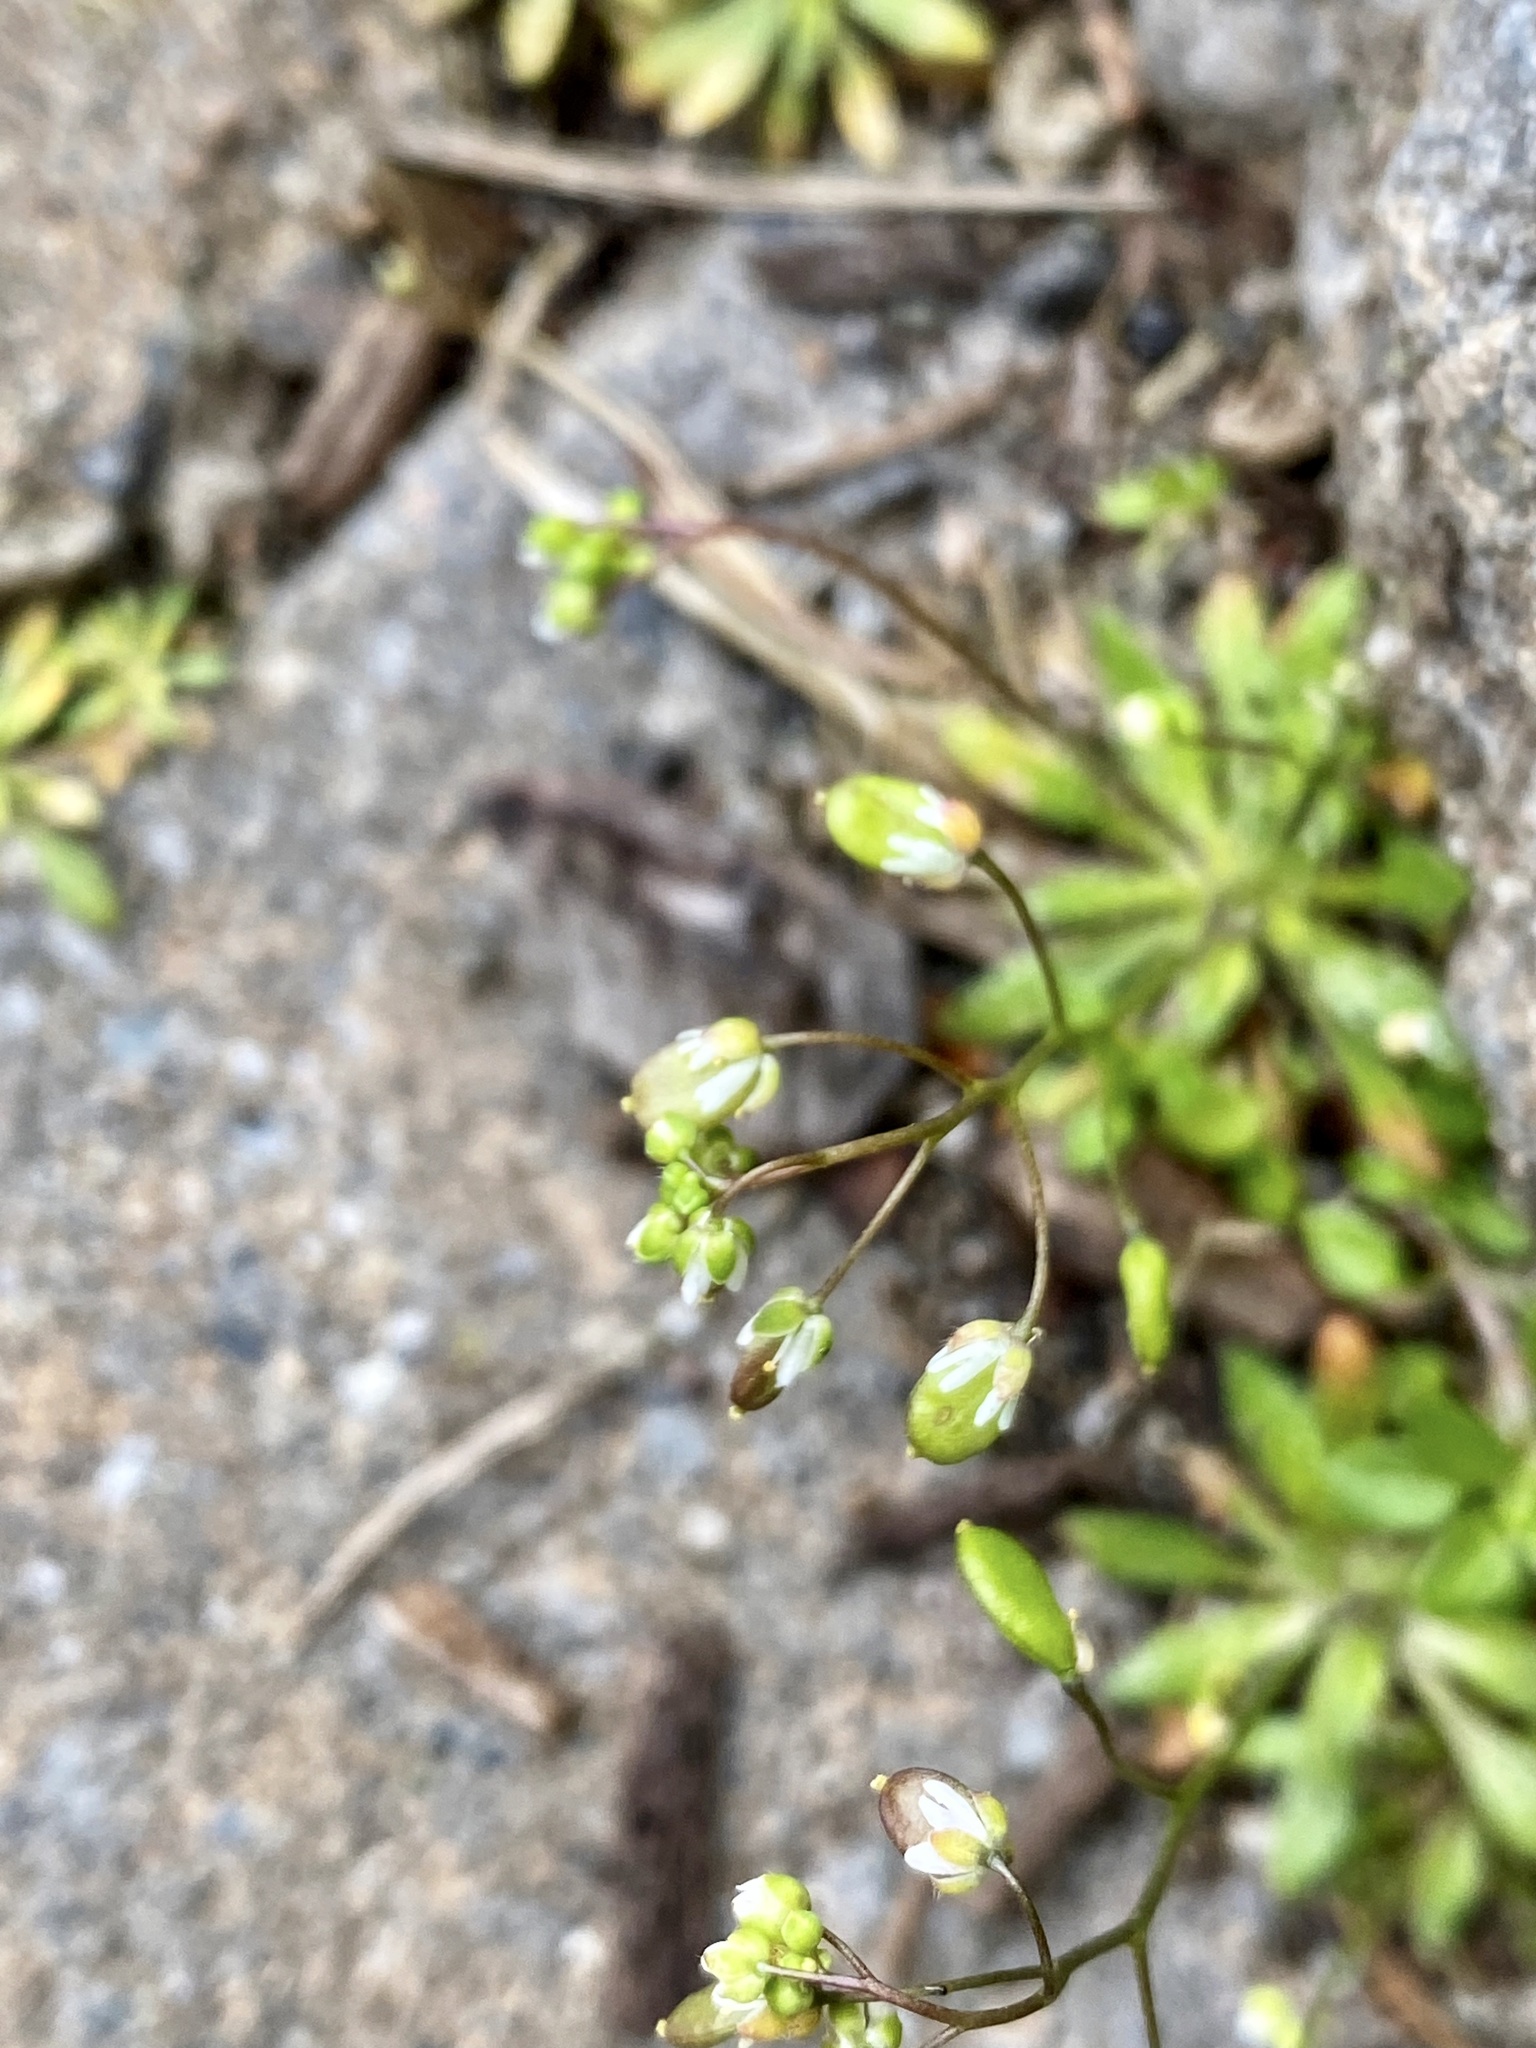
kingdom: Plantae
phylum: Tracheophyta
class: Magnoliopsida
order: Brassicales
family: Brassicaceae
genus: Draba
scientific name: Draba verna
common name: Spring draba
